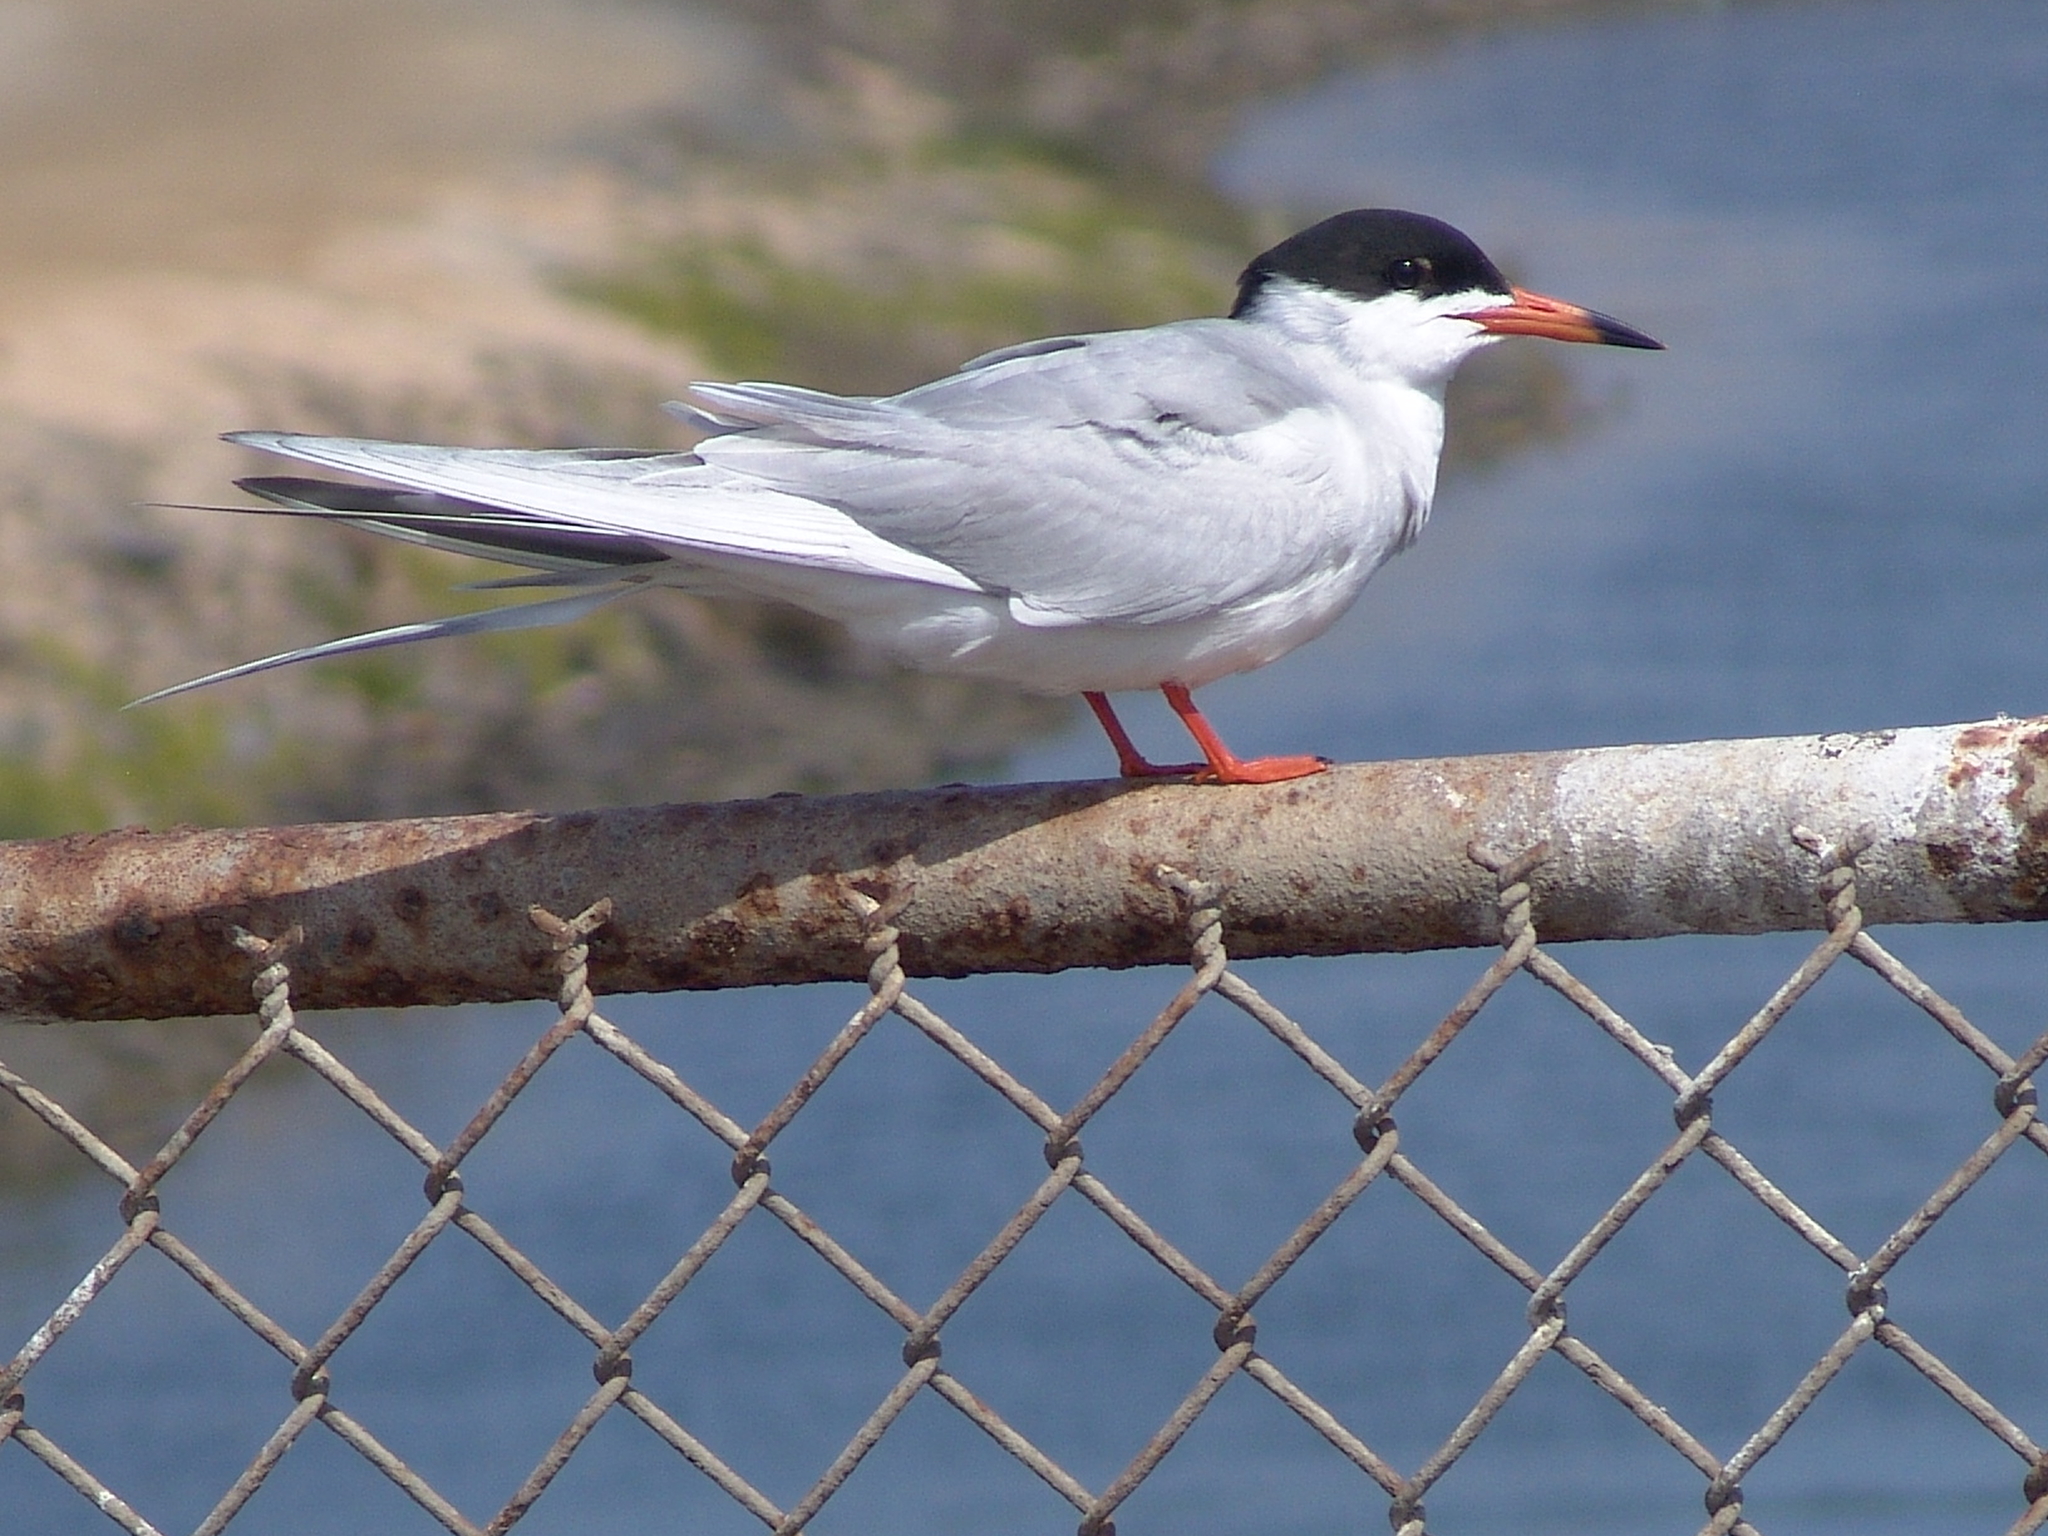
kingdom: Animalia
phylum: Chordata
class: Aves
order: Charadriiformes
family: Laridae
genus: Sterna
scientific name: Sterna forsteri
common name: Forster's tern
